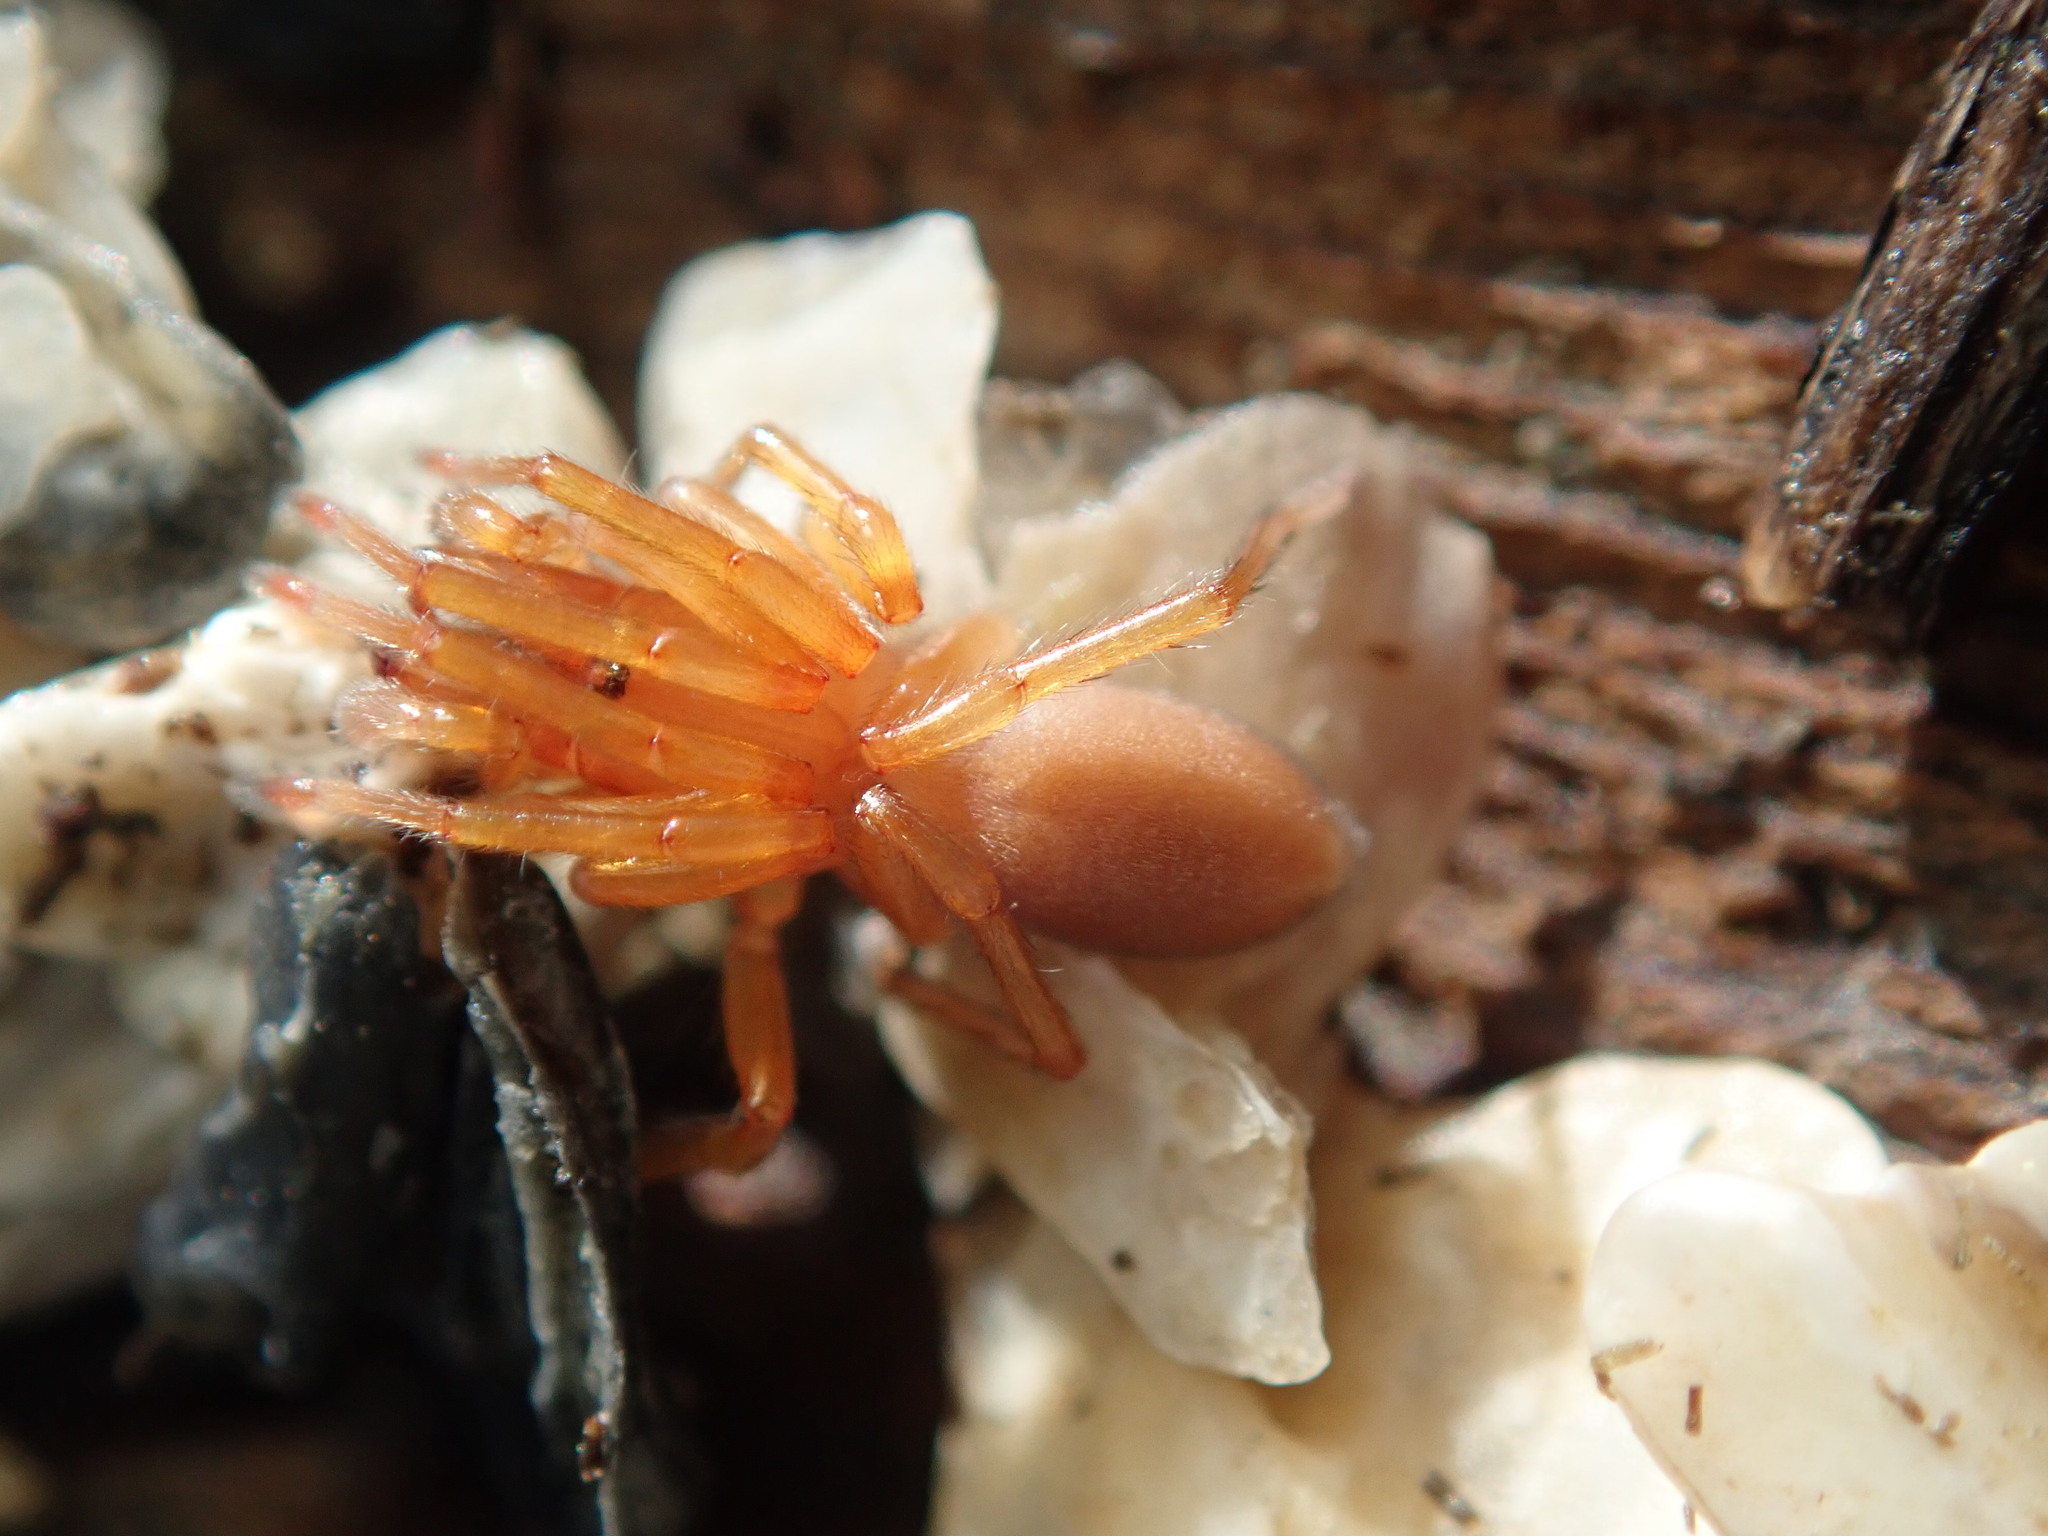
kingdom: Animalia
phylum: Arthropoda
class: Arachnida
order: Araneae
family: Dysderidae
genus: Dysdera
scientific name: Dysdera crocata
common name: Woodlouse spider
